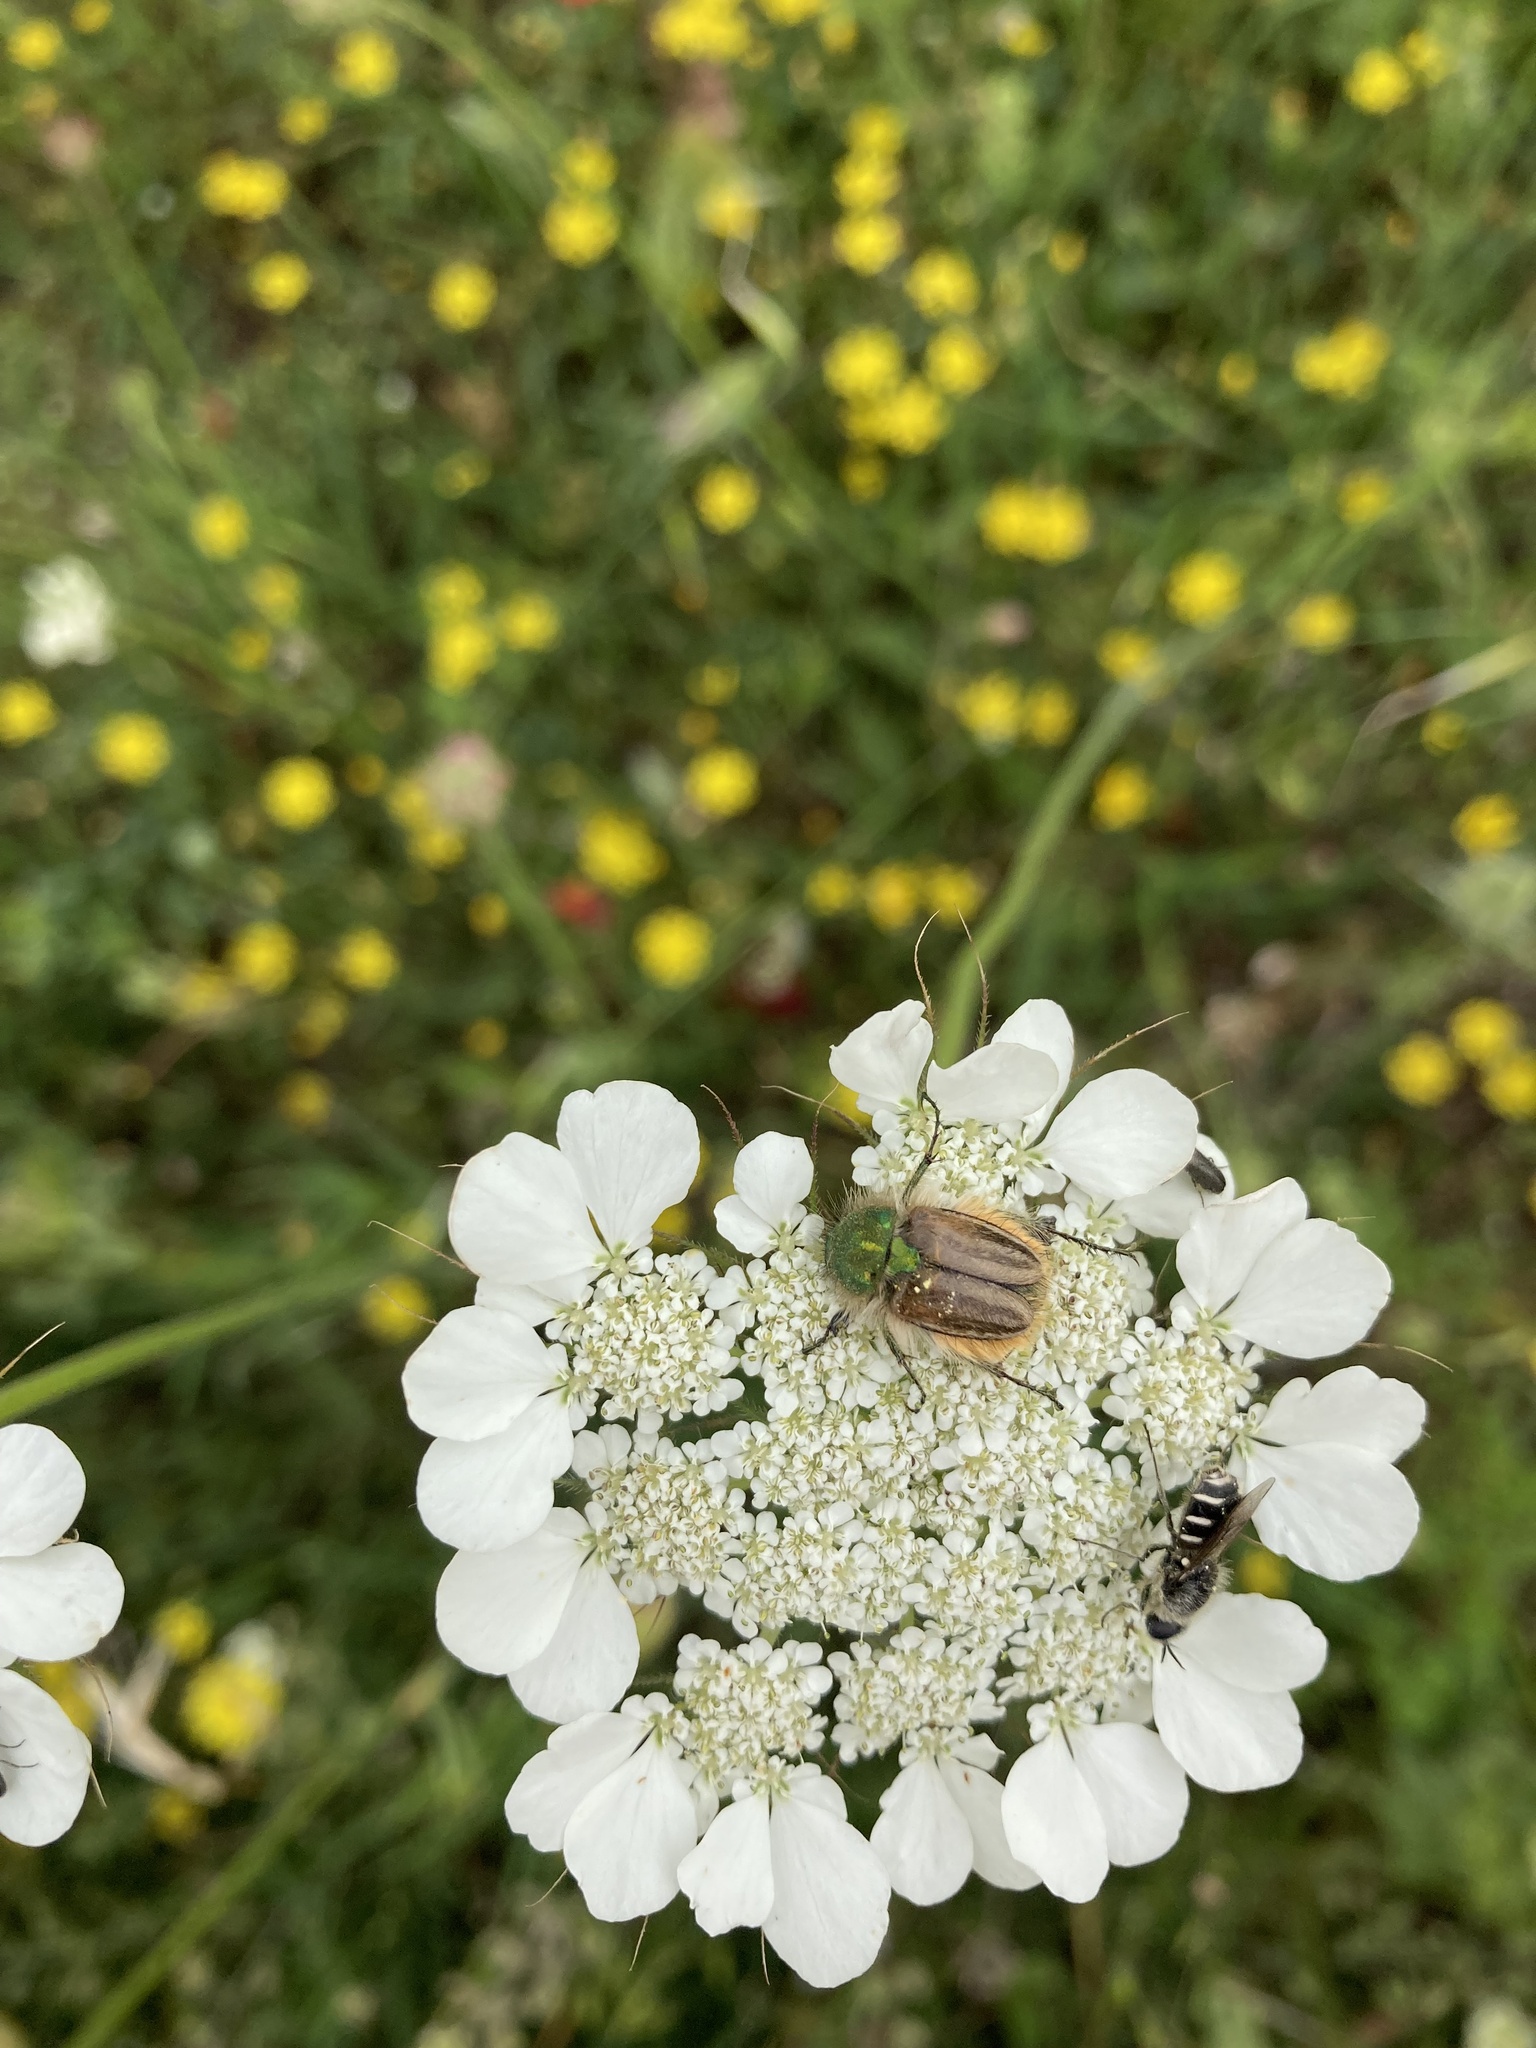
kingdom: Animalia
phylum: Arthropoda
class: Insecta
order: Coleoptera
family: Glaphyridae
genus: Eulasia
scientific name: Eulasia pareyssei
